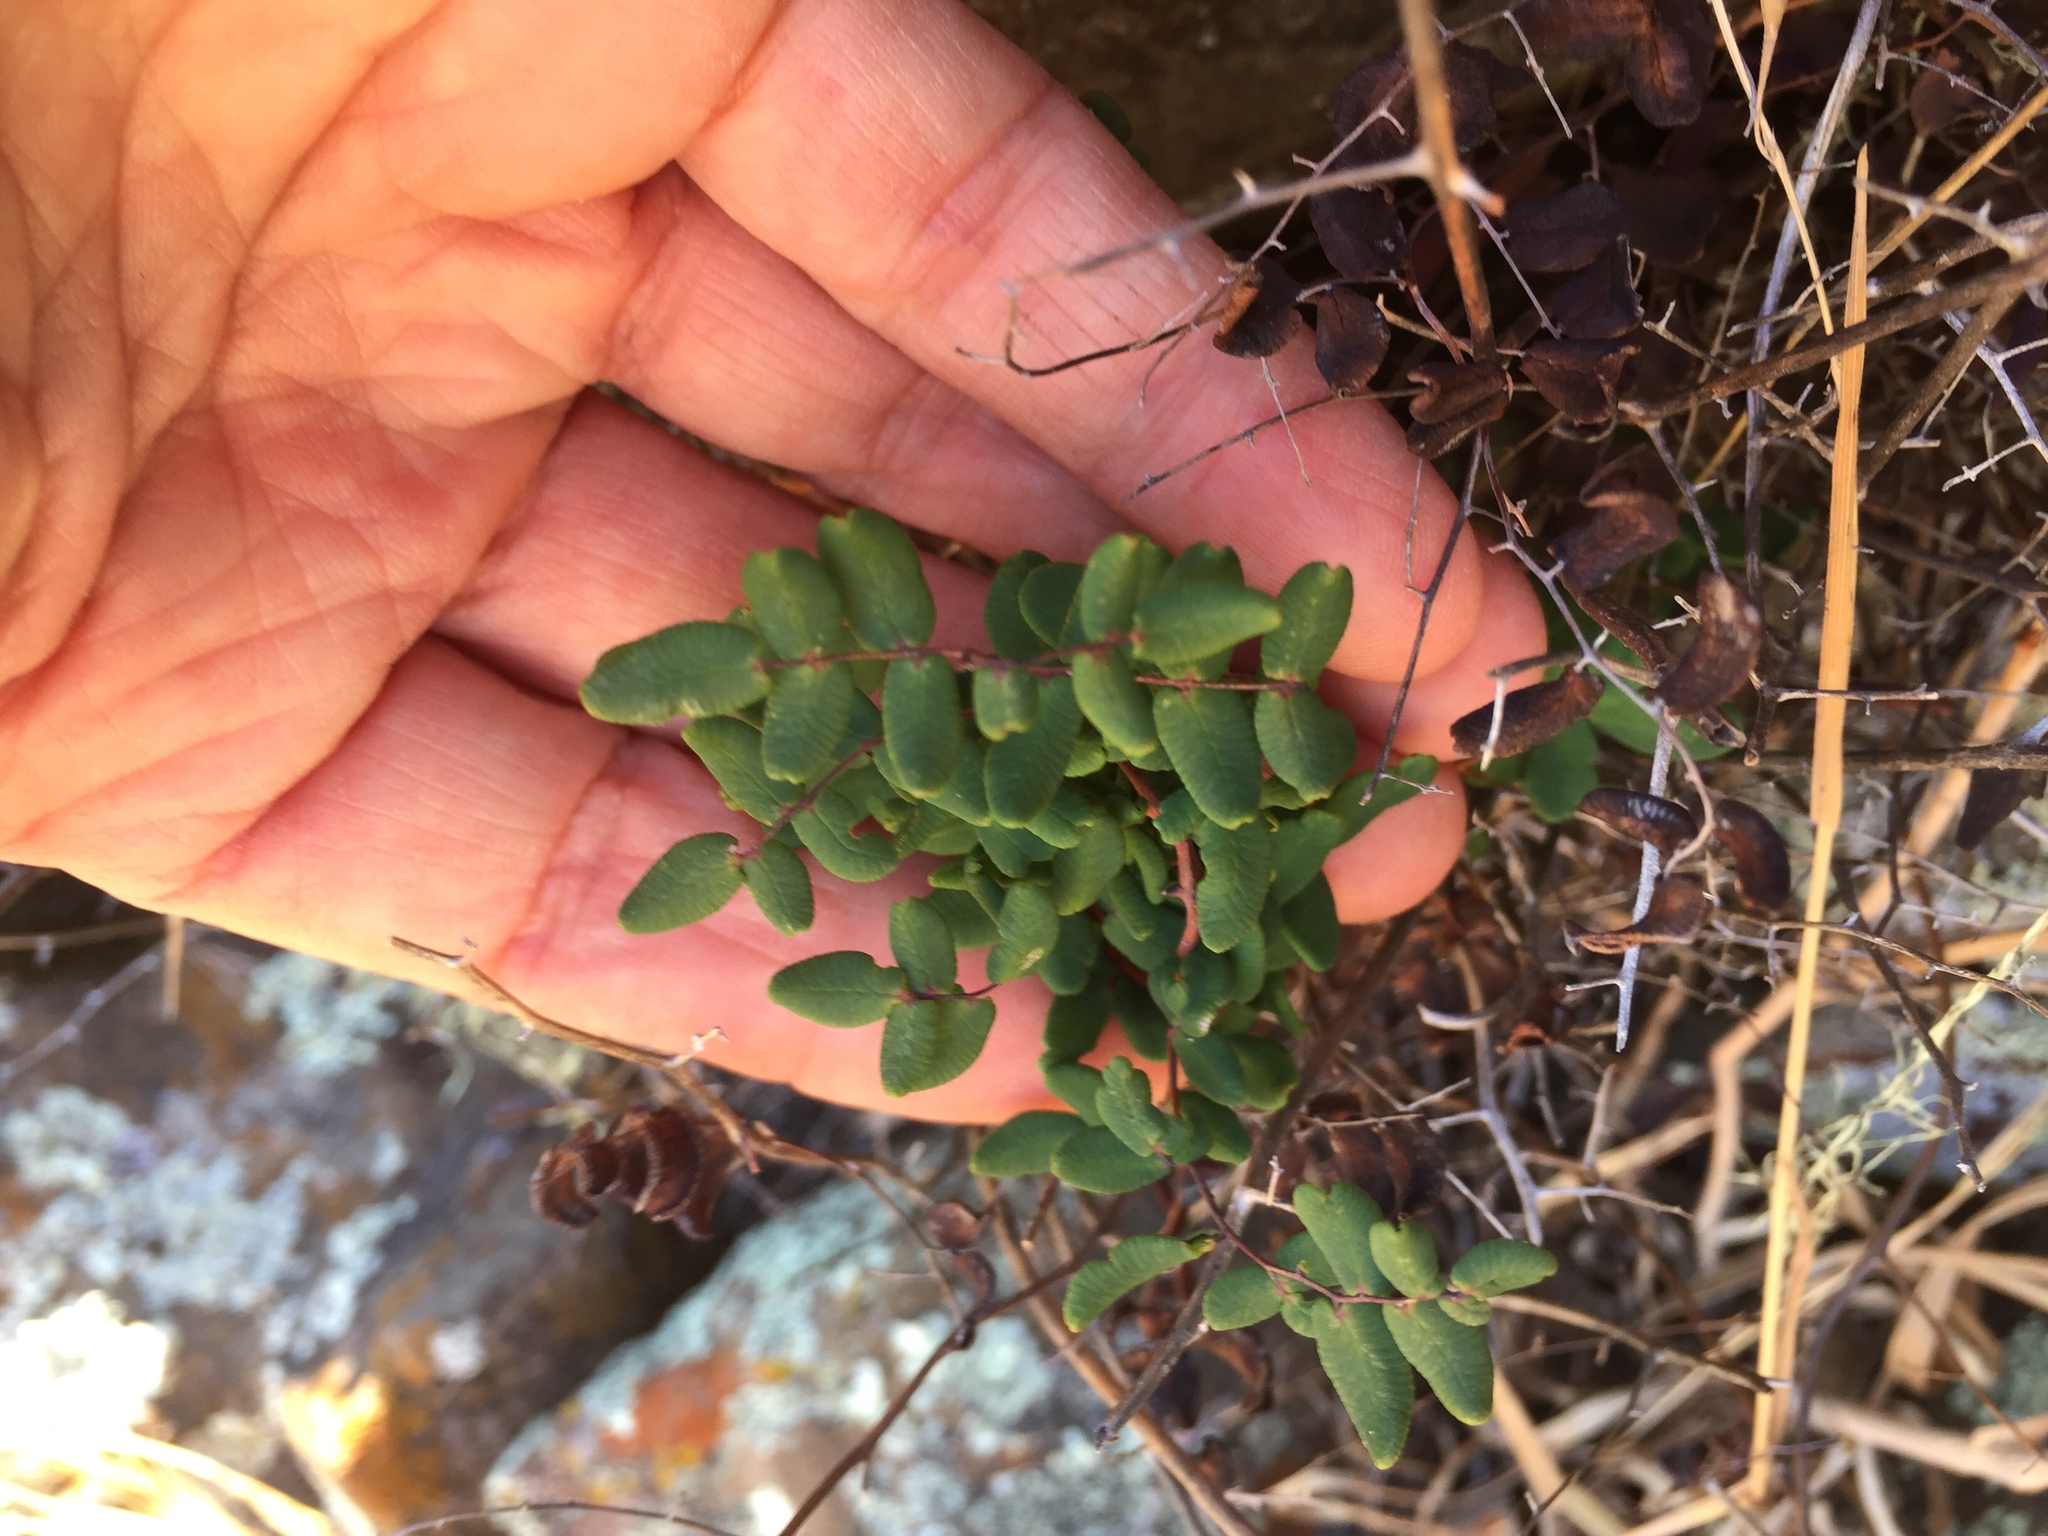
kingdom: Plantae
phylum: Tracheophyta
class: Polypodiopsida
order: Polypodiales
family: Pteridaceae
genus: Pellaea
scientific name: Pellaea andromedifolia
